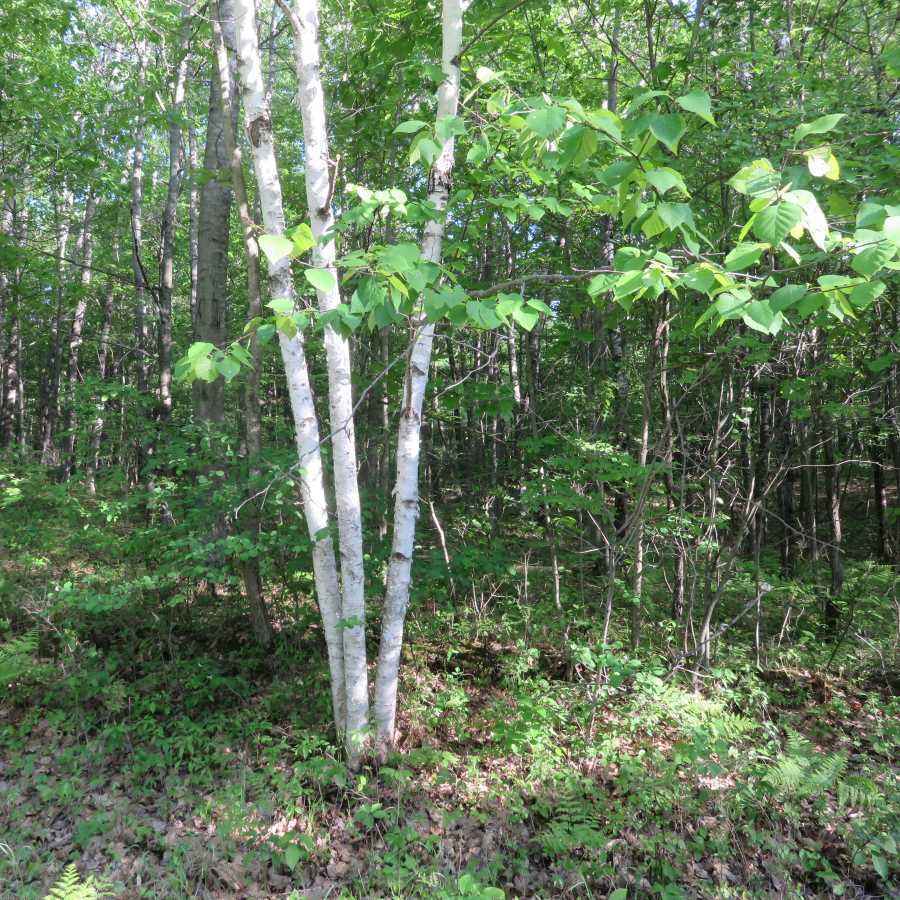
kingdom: Plantae
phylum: Tracheophyta
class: Magnoliopsida
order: Fagales
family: Betulaceae
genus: Betula
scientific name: Betula papyrifera
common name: Paper birch
